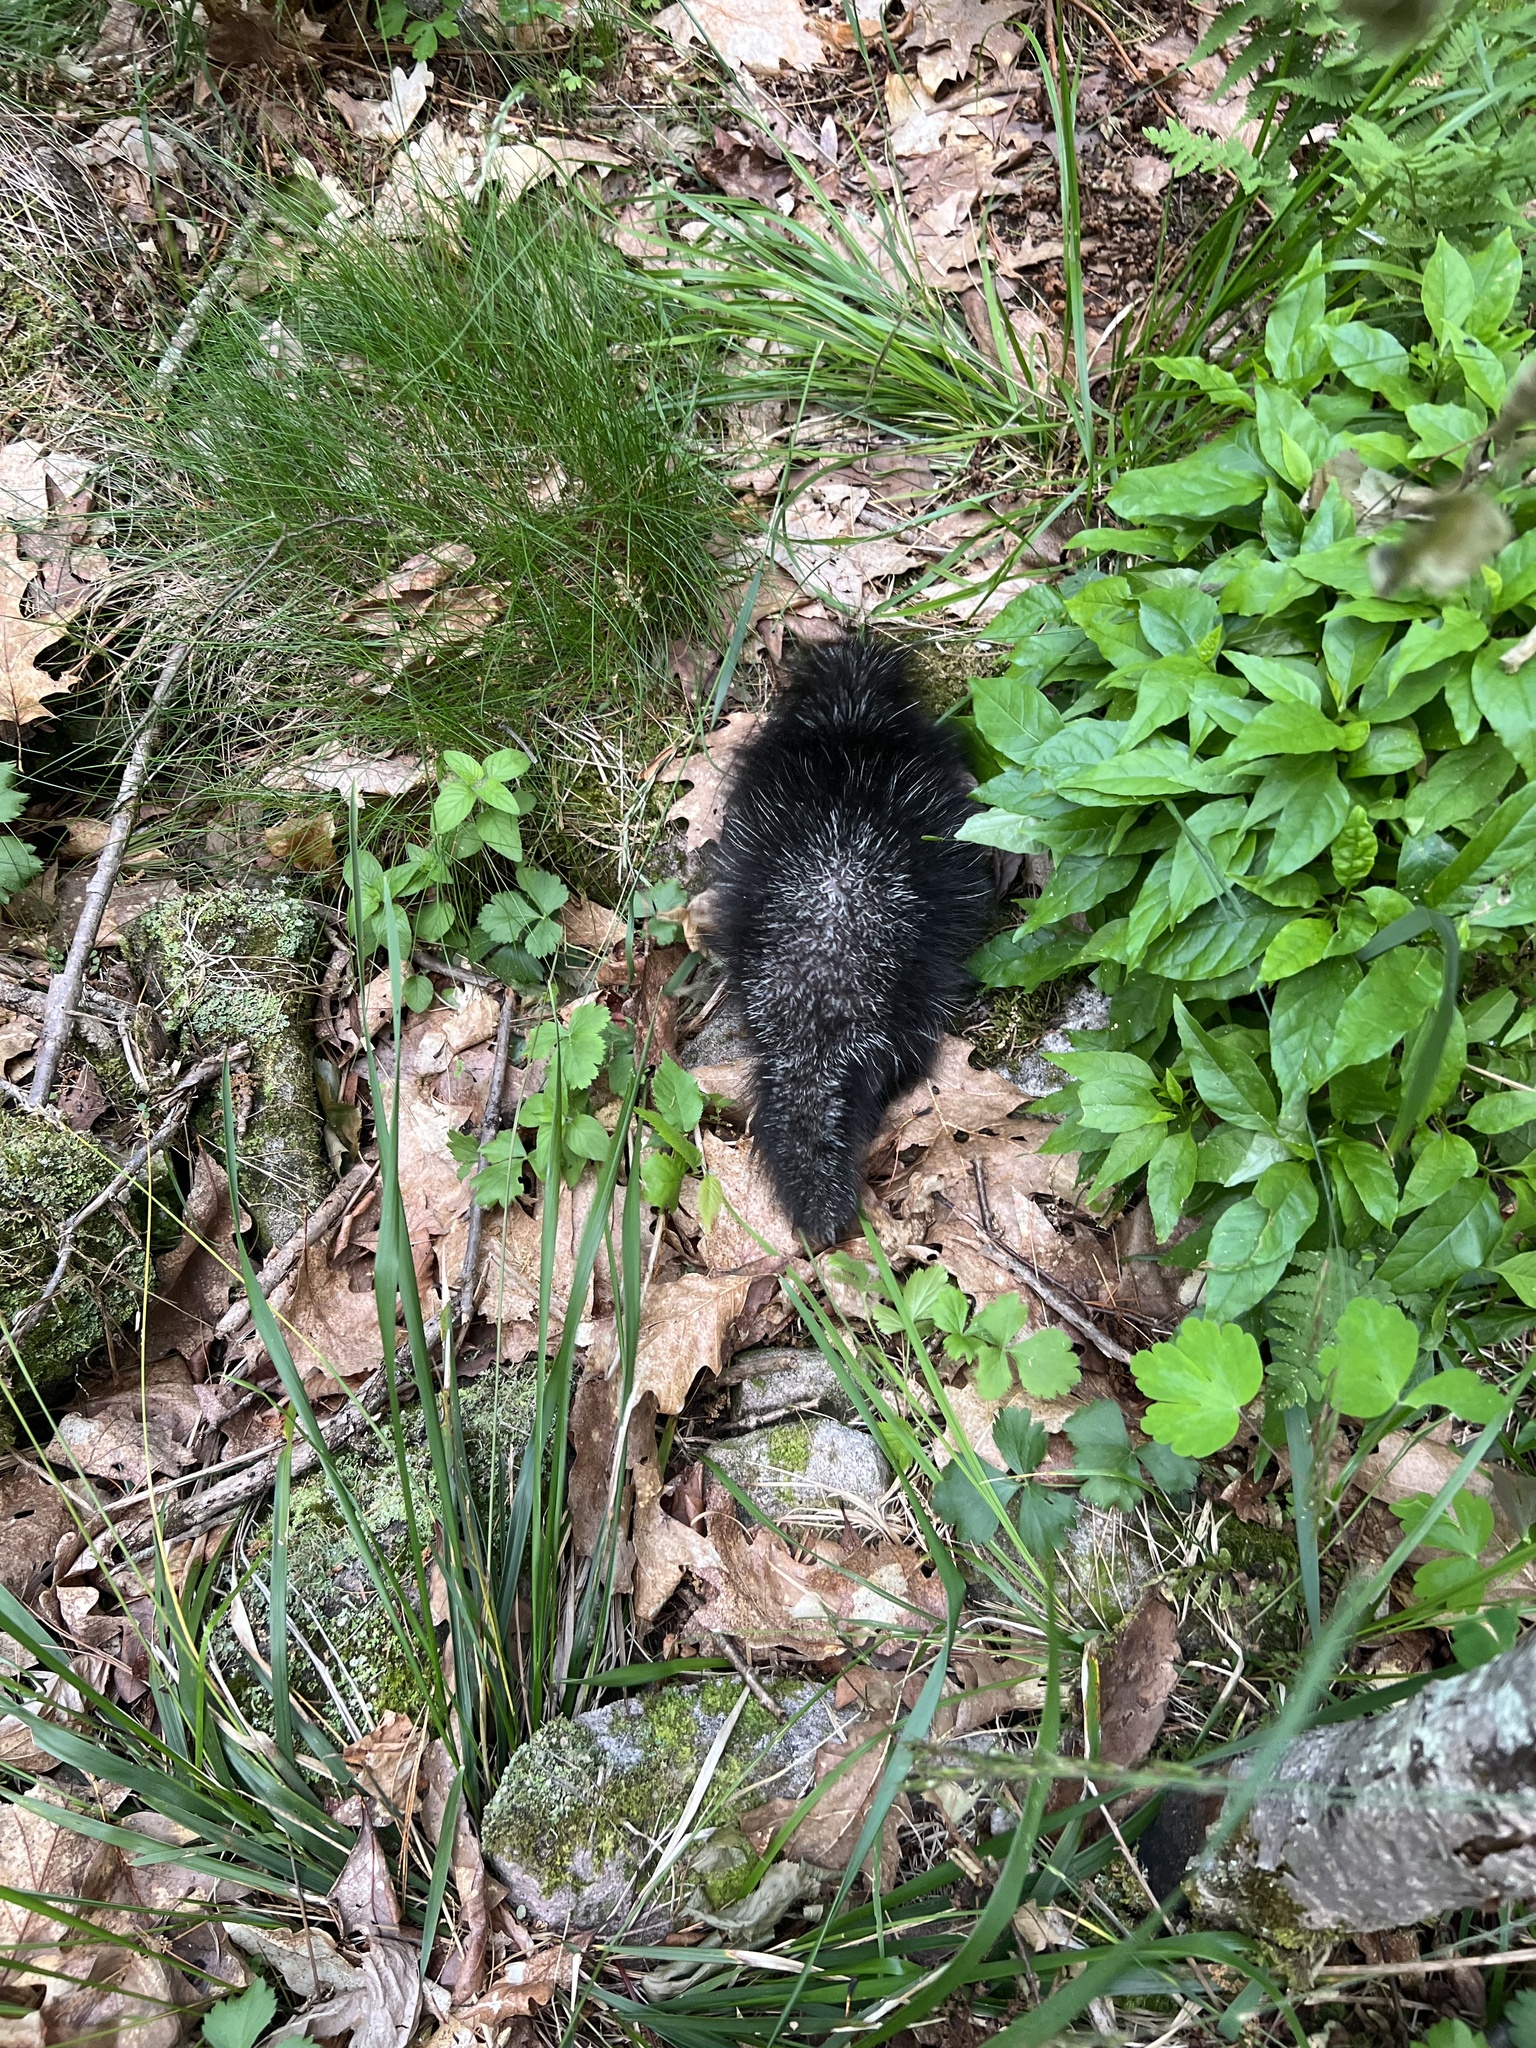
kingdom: Animalia
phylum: Chordata
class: Mammalia
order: Rodentia
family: Erethizontidae
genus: Erethizon
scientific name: Erethizon dorsatus
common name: North american porcupine
